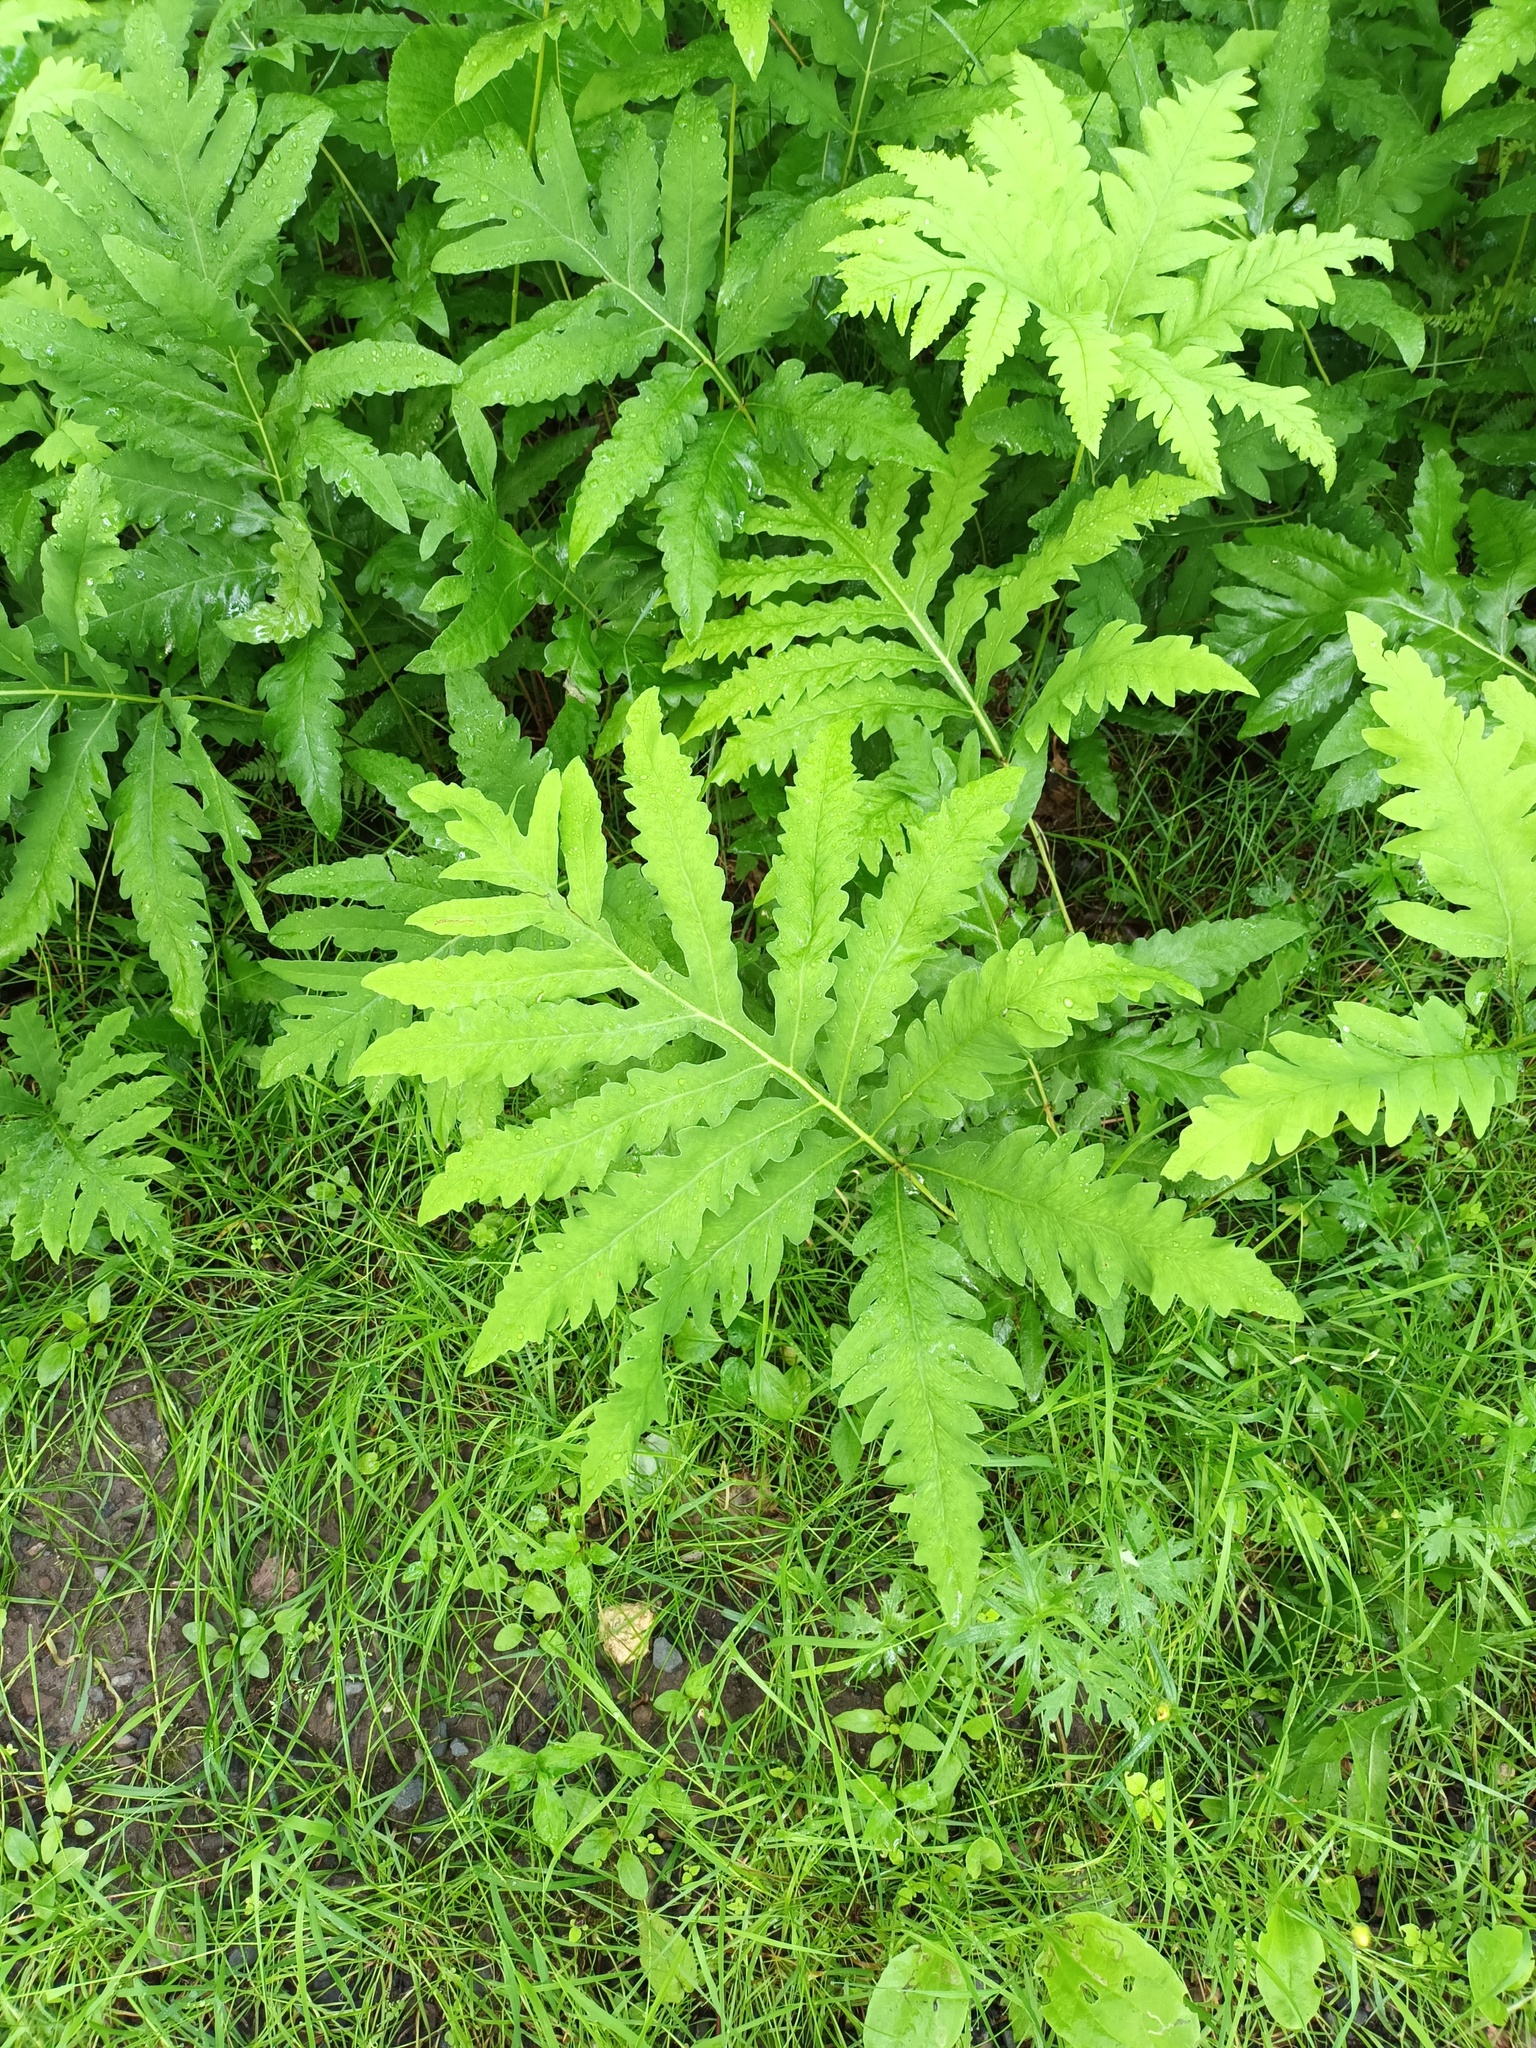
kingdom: Plantae
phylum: Tracheophyta
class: Polypodiopsida
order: Polypodiales
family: Onocleaceae
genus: Onoclea
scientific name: Onoclea sensibilis
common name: Sensitive fern
